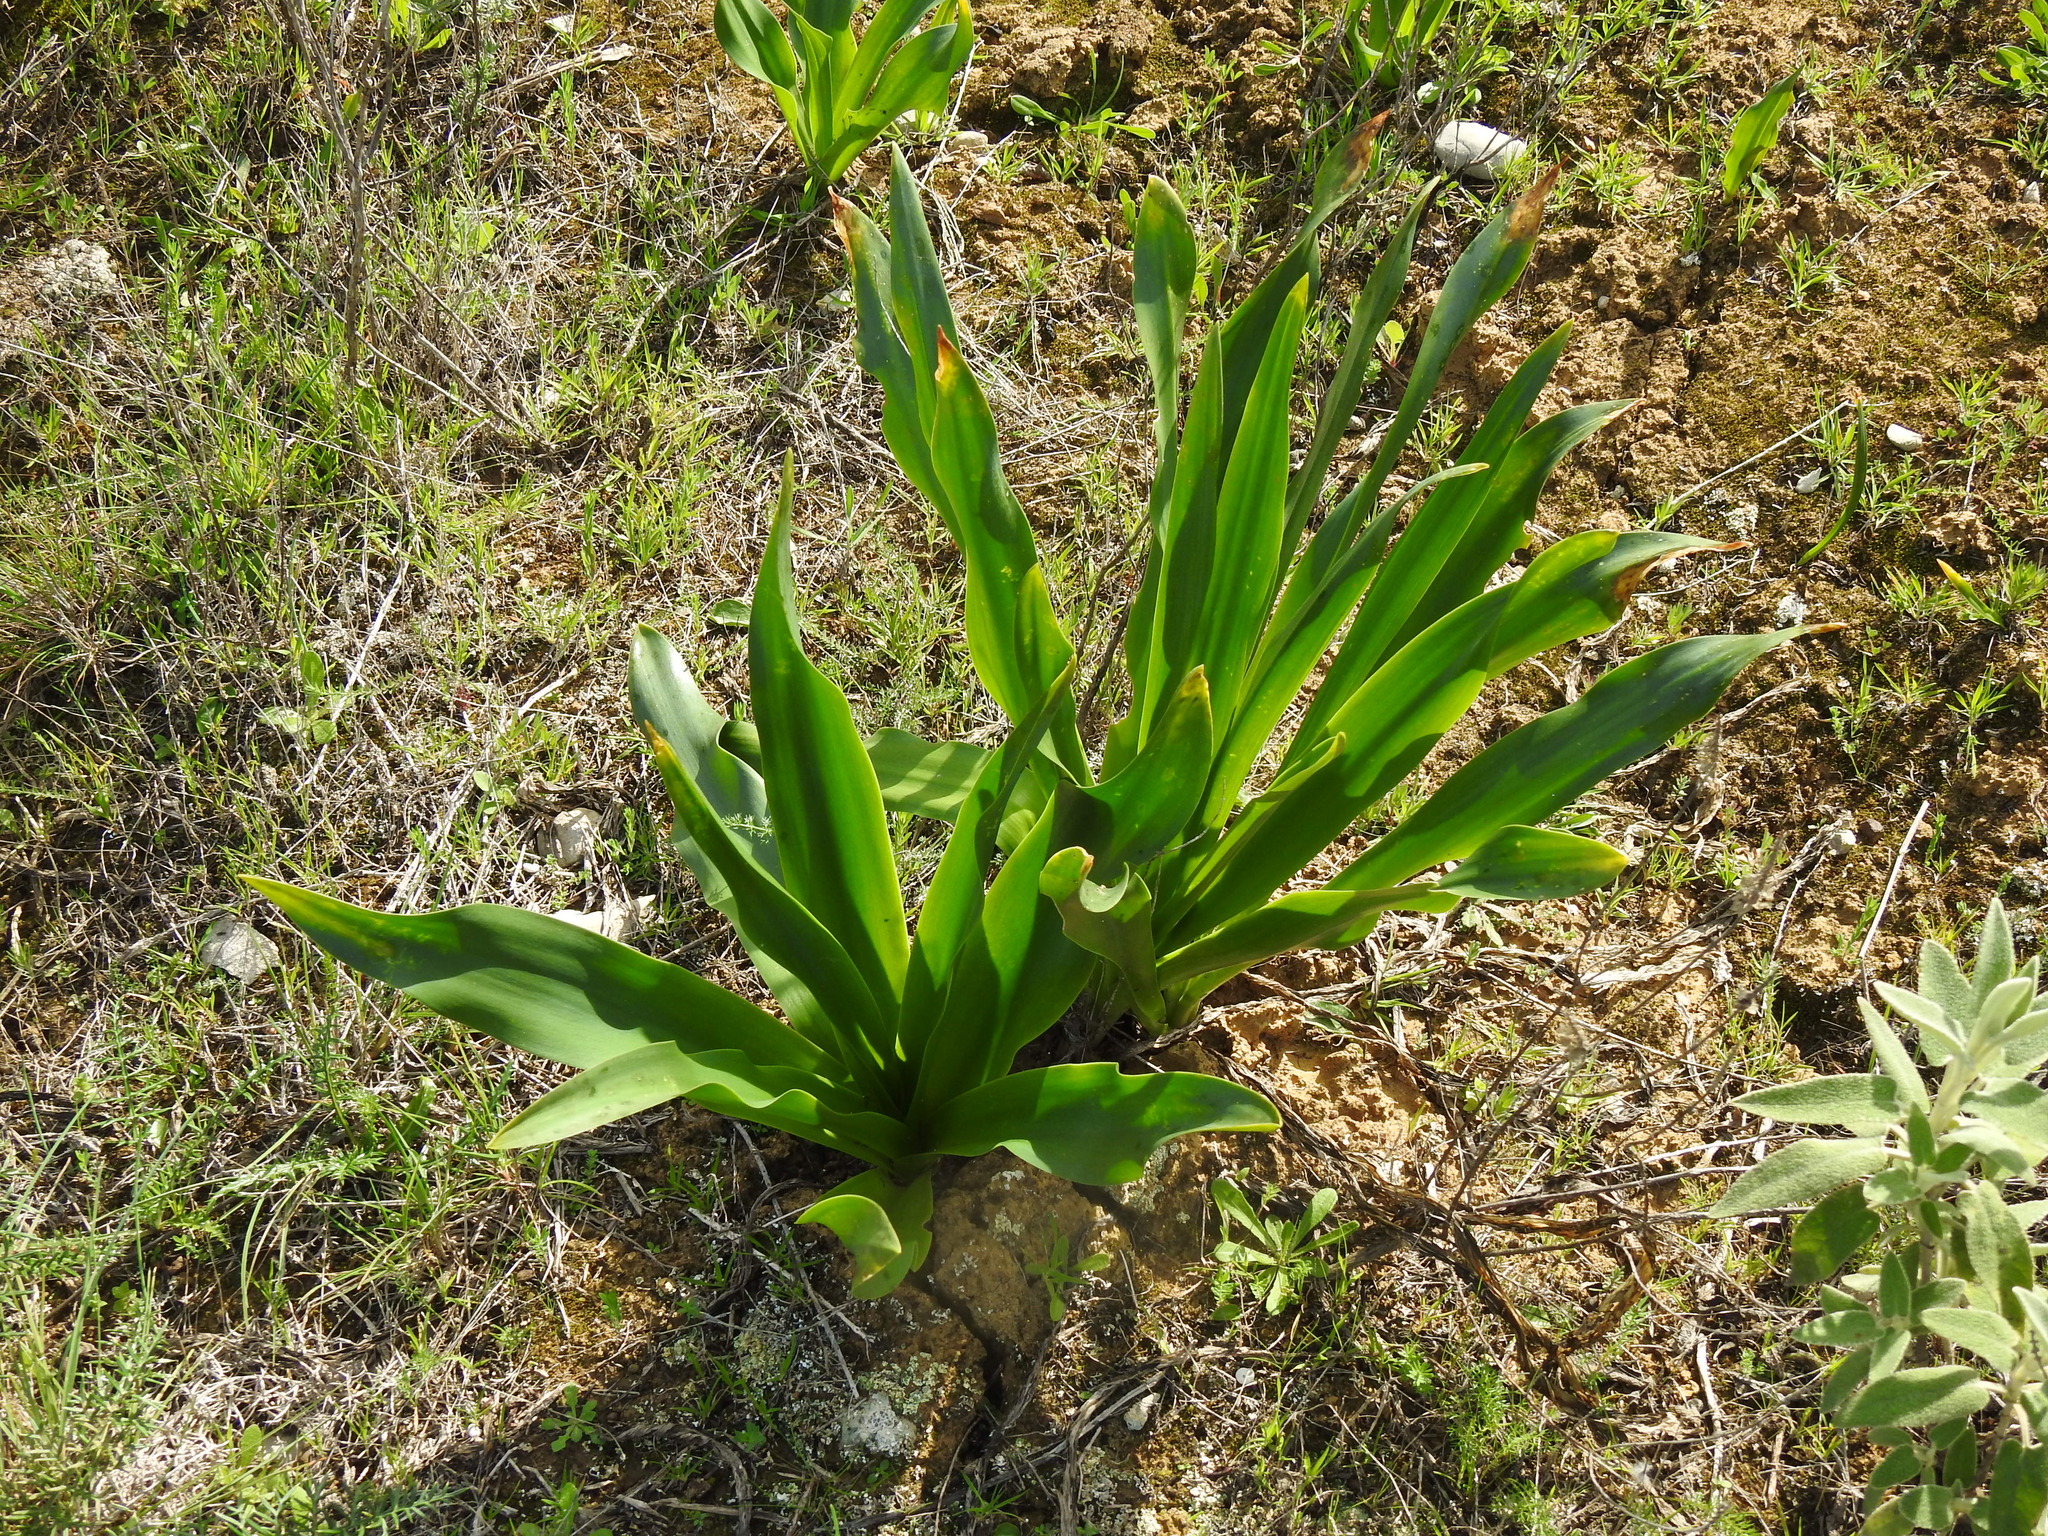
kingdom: Plantae
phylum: Tracheophyta
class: Liliopsida
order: Asparagales
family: Asparagaceae
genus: Drimia
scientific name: Drimia maritima
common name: Maritime squill
